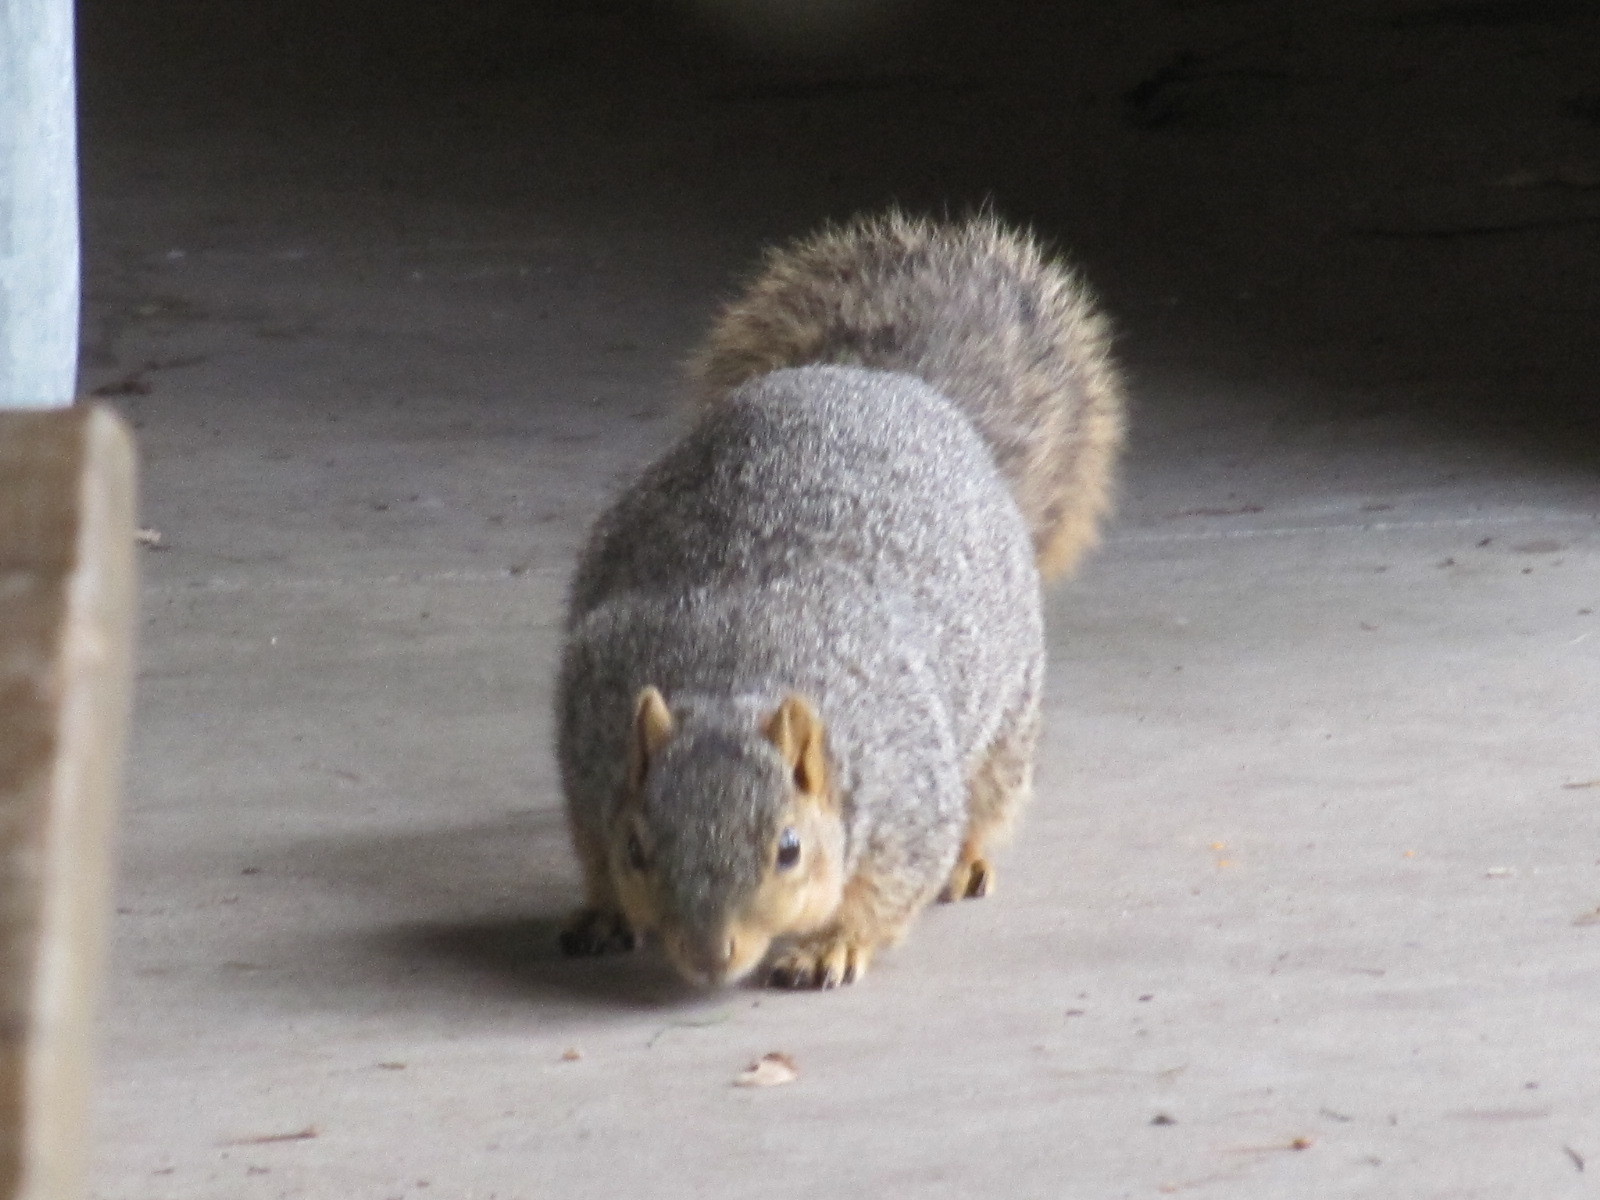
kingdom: Animalia
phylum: Chordata
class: Mammalia
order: Rodentia
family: Sciuridae
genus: Sciurus
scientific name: Sciurus niger
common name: Fox squirrel
